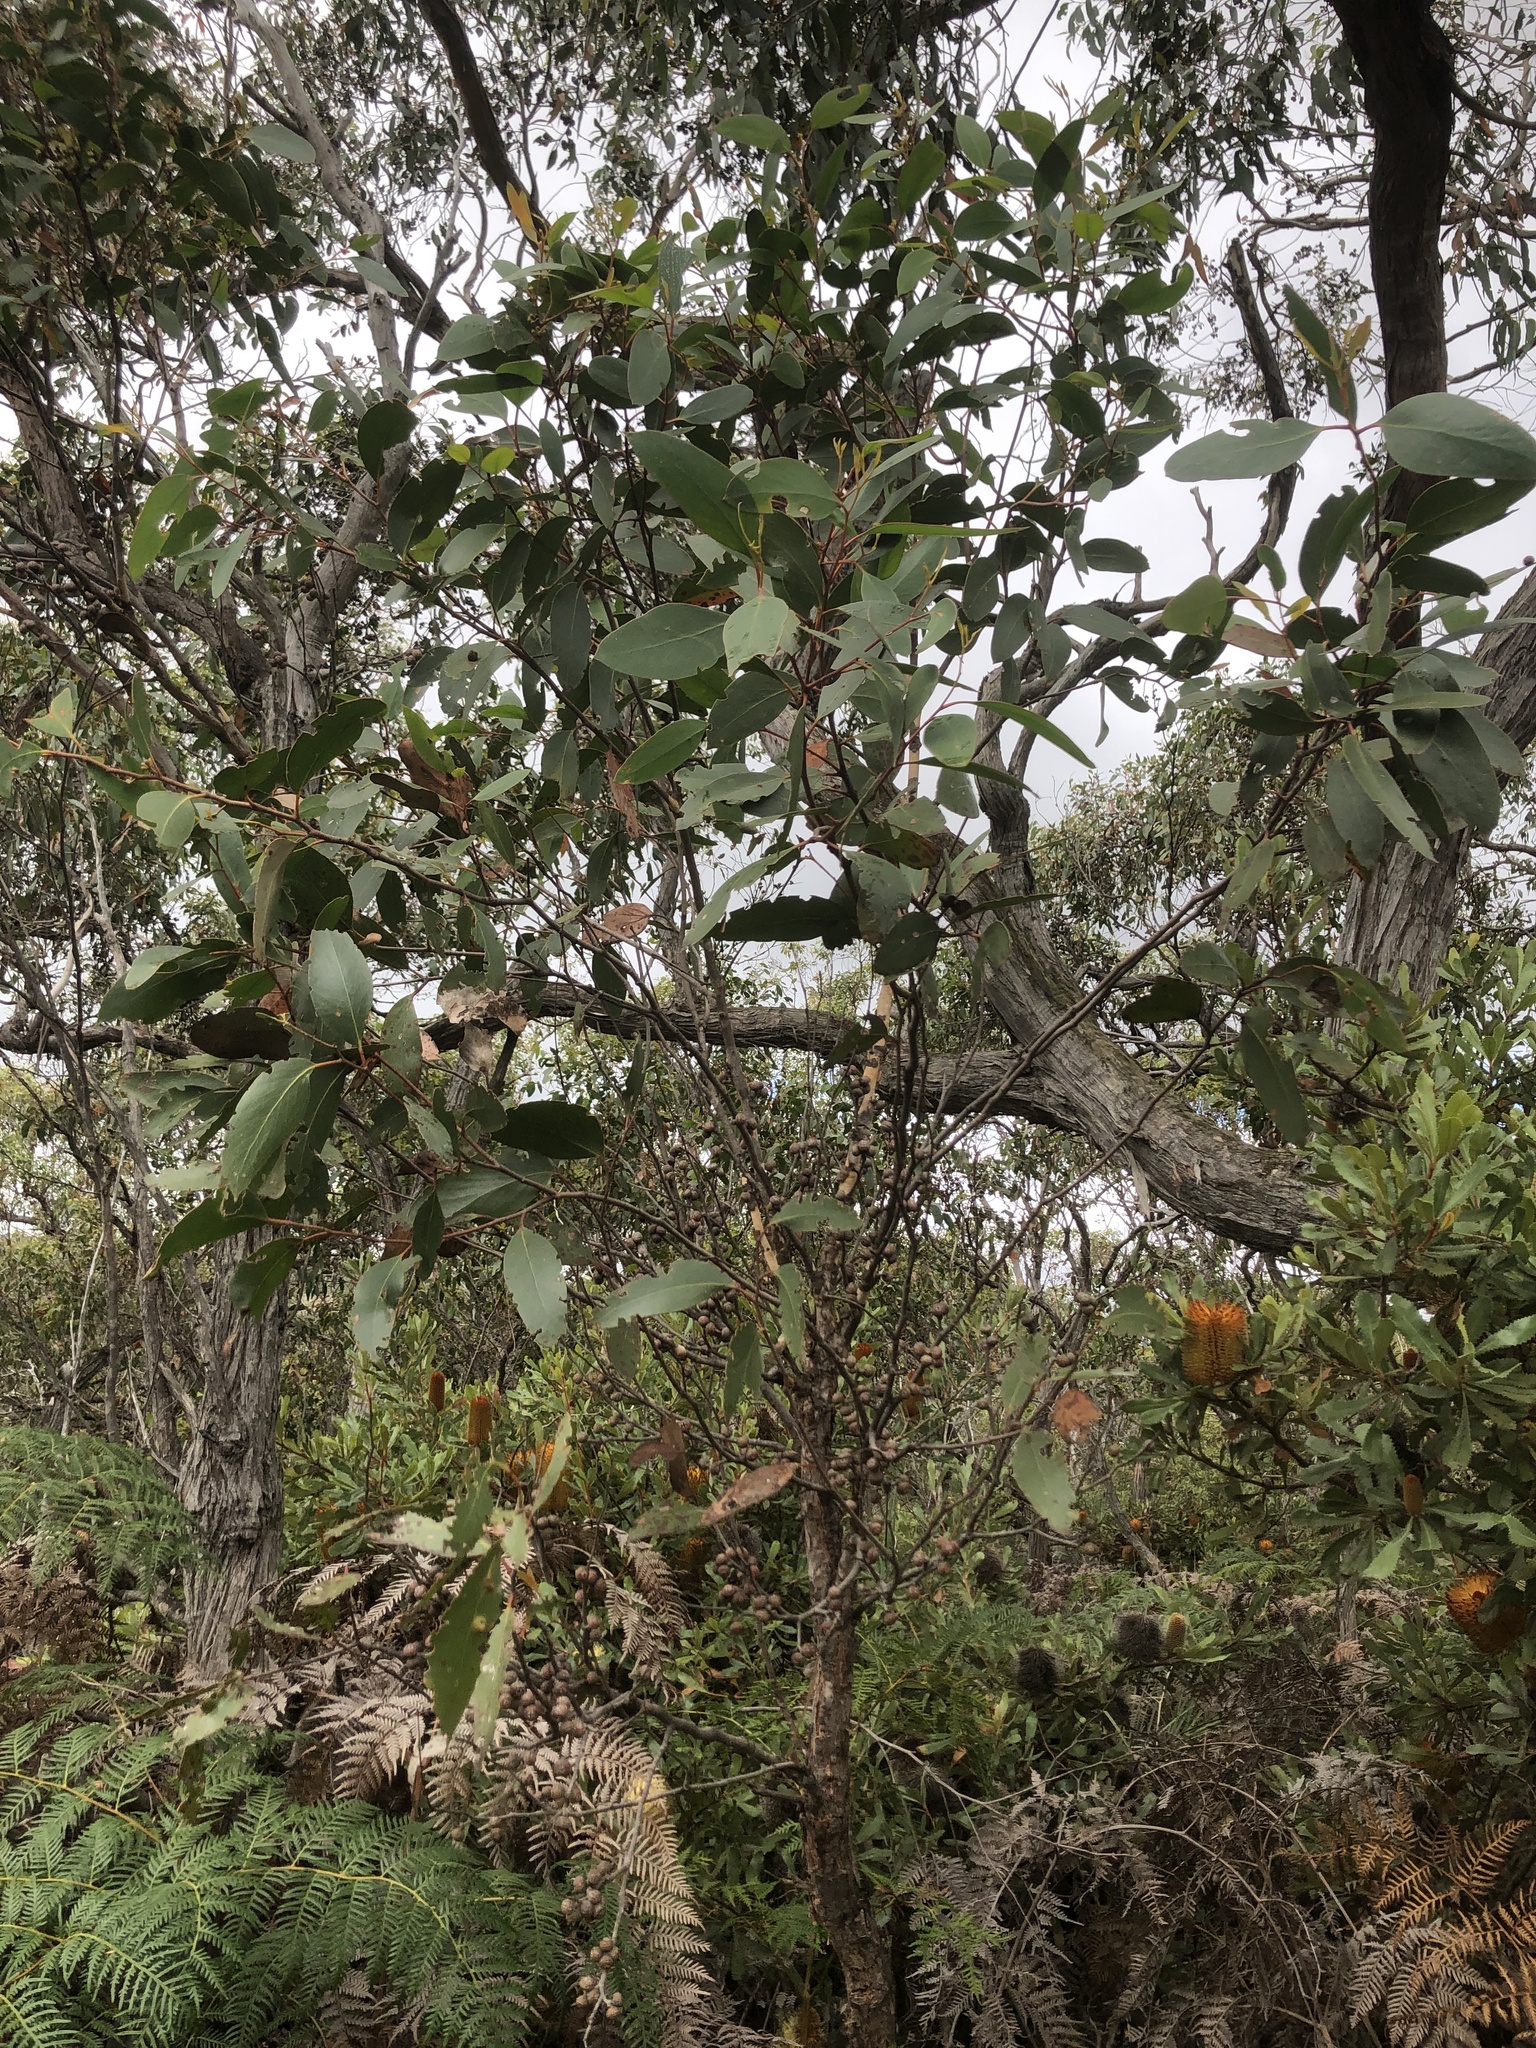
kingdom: Plantae
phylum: Tracheophyta
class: Magnoliopsida
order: Myrtales
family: Myrtaceae
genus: Eucalyptus
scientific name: Eucalyptus baxteri
